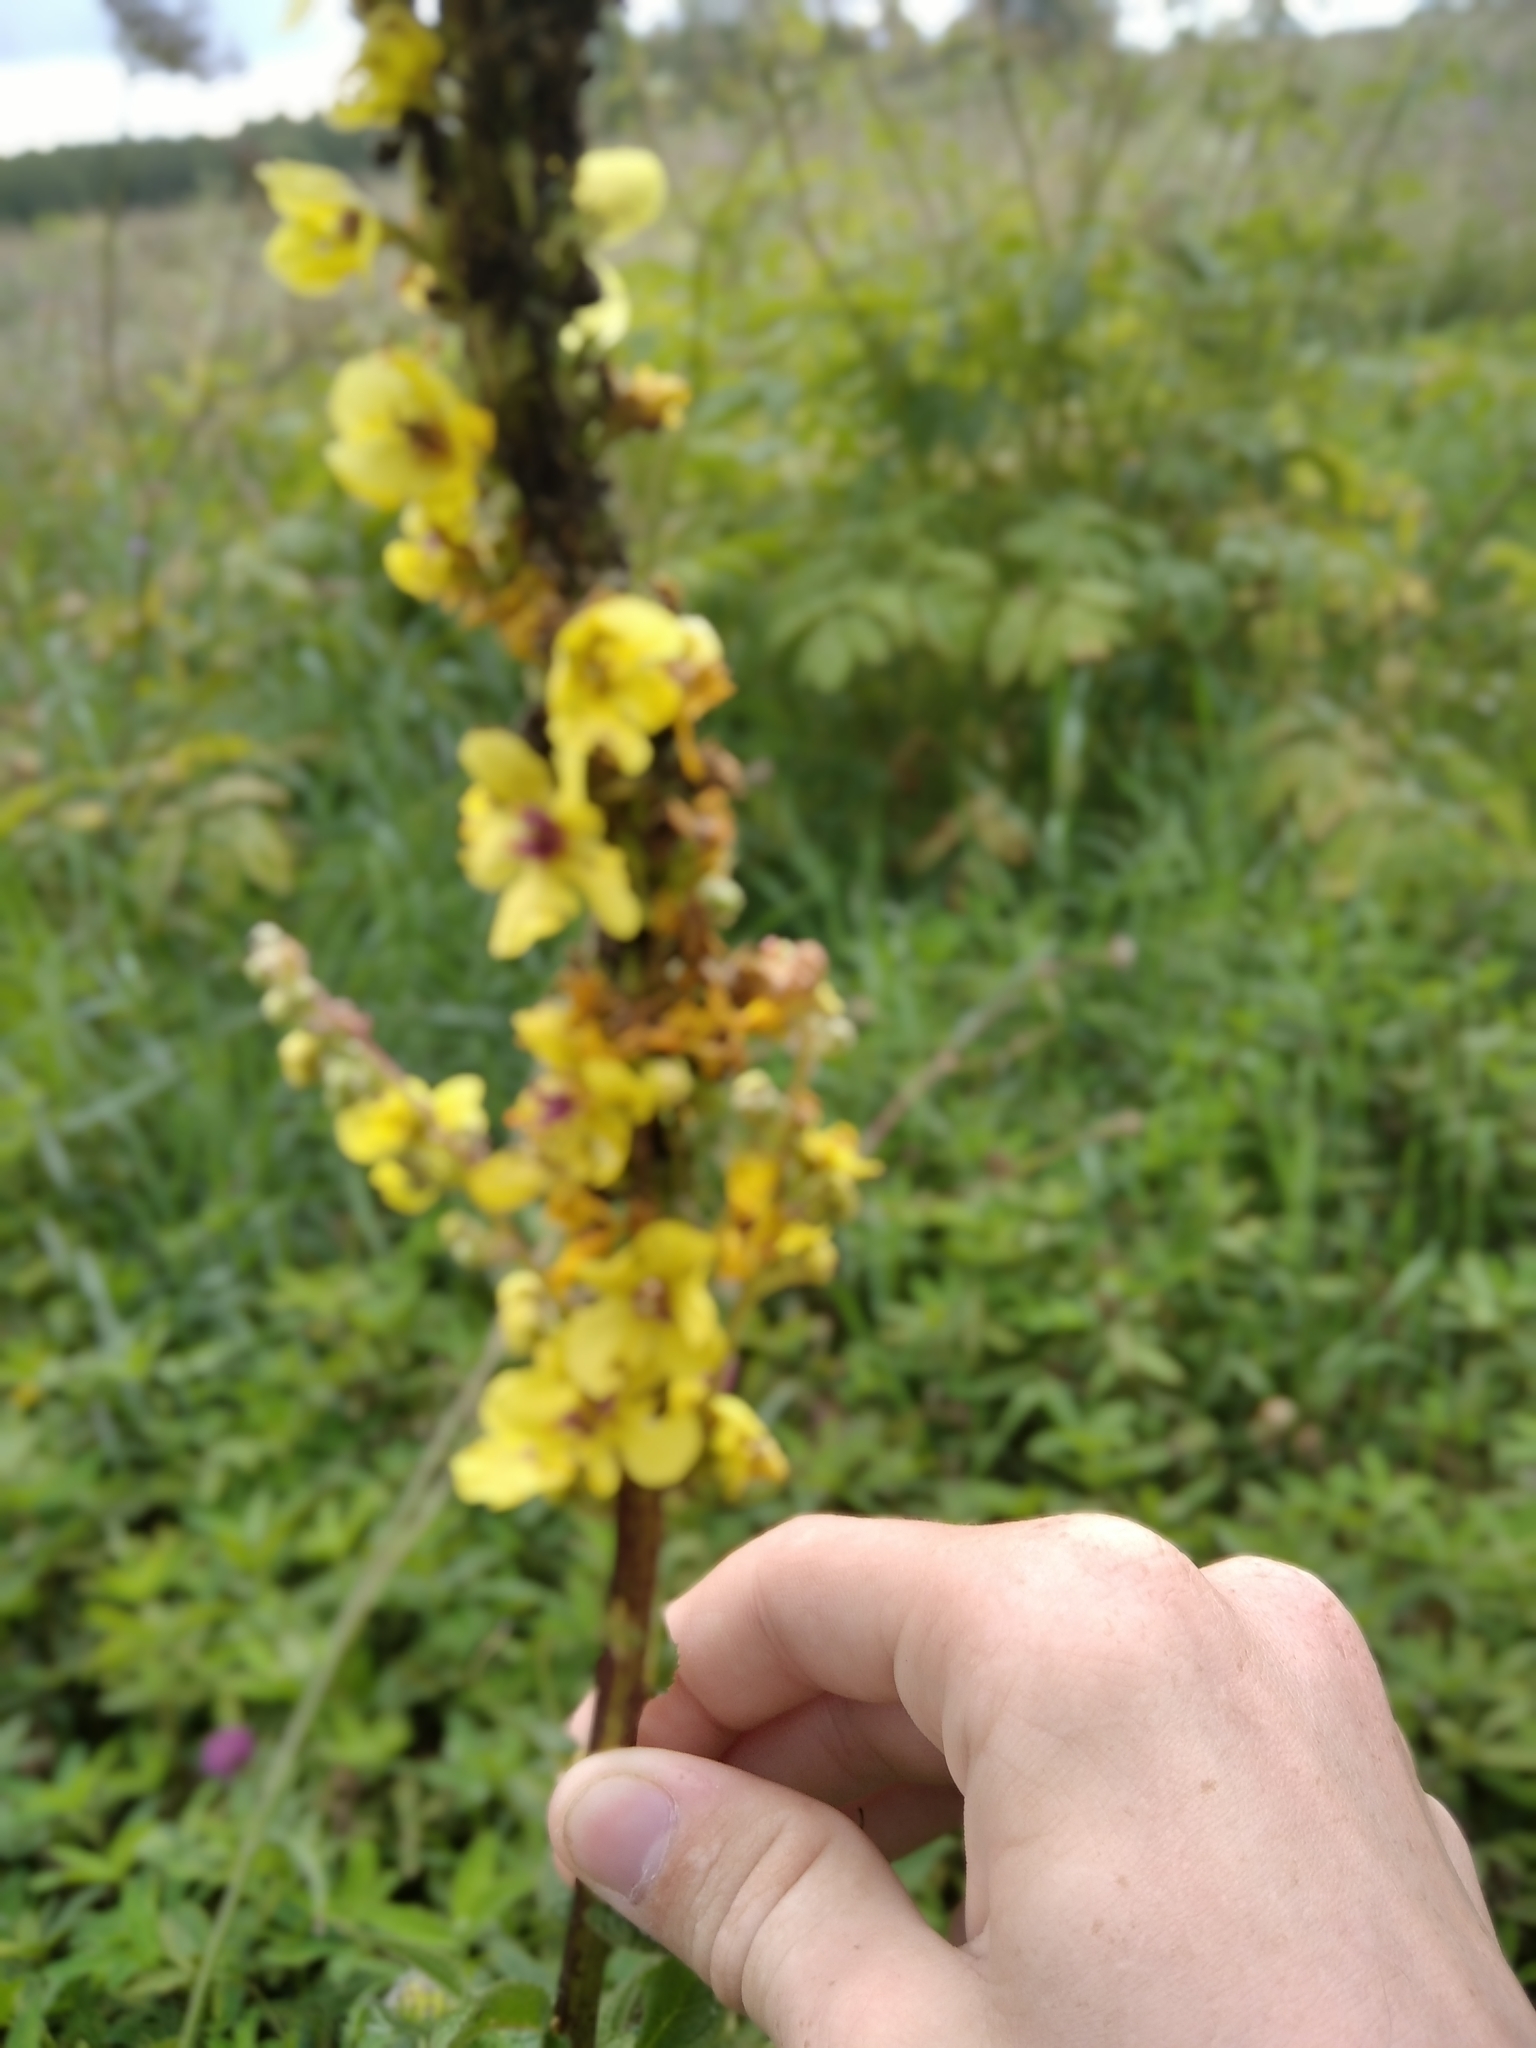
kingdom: Plantae
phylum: Tracheophyta
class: Magnoliopsida
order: Lamiales
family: Scrophulariaceae
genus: Verbascum
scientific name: Verbascum nigrum
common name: Dark mullein
